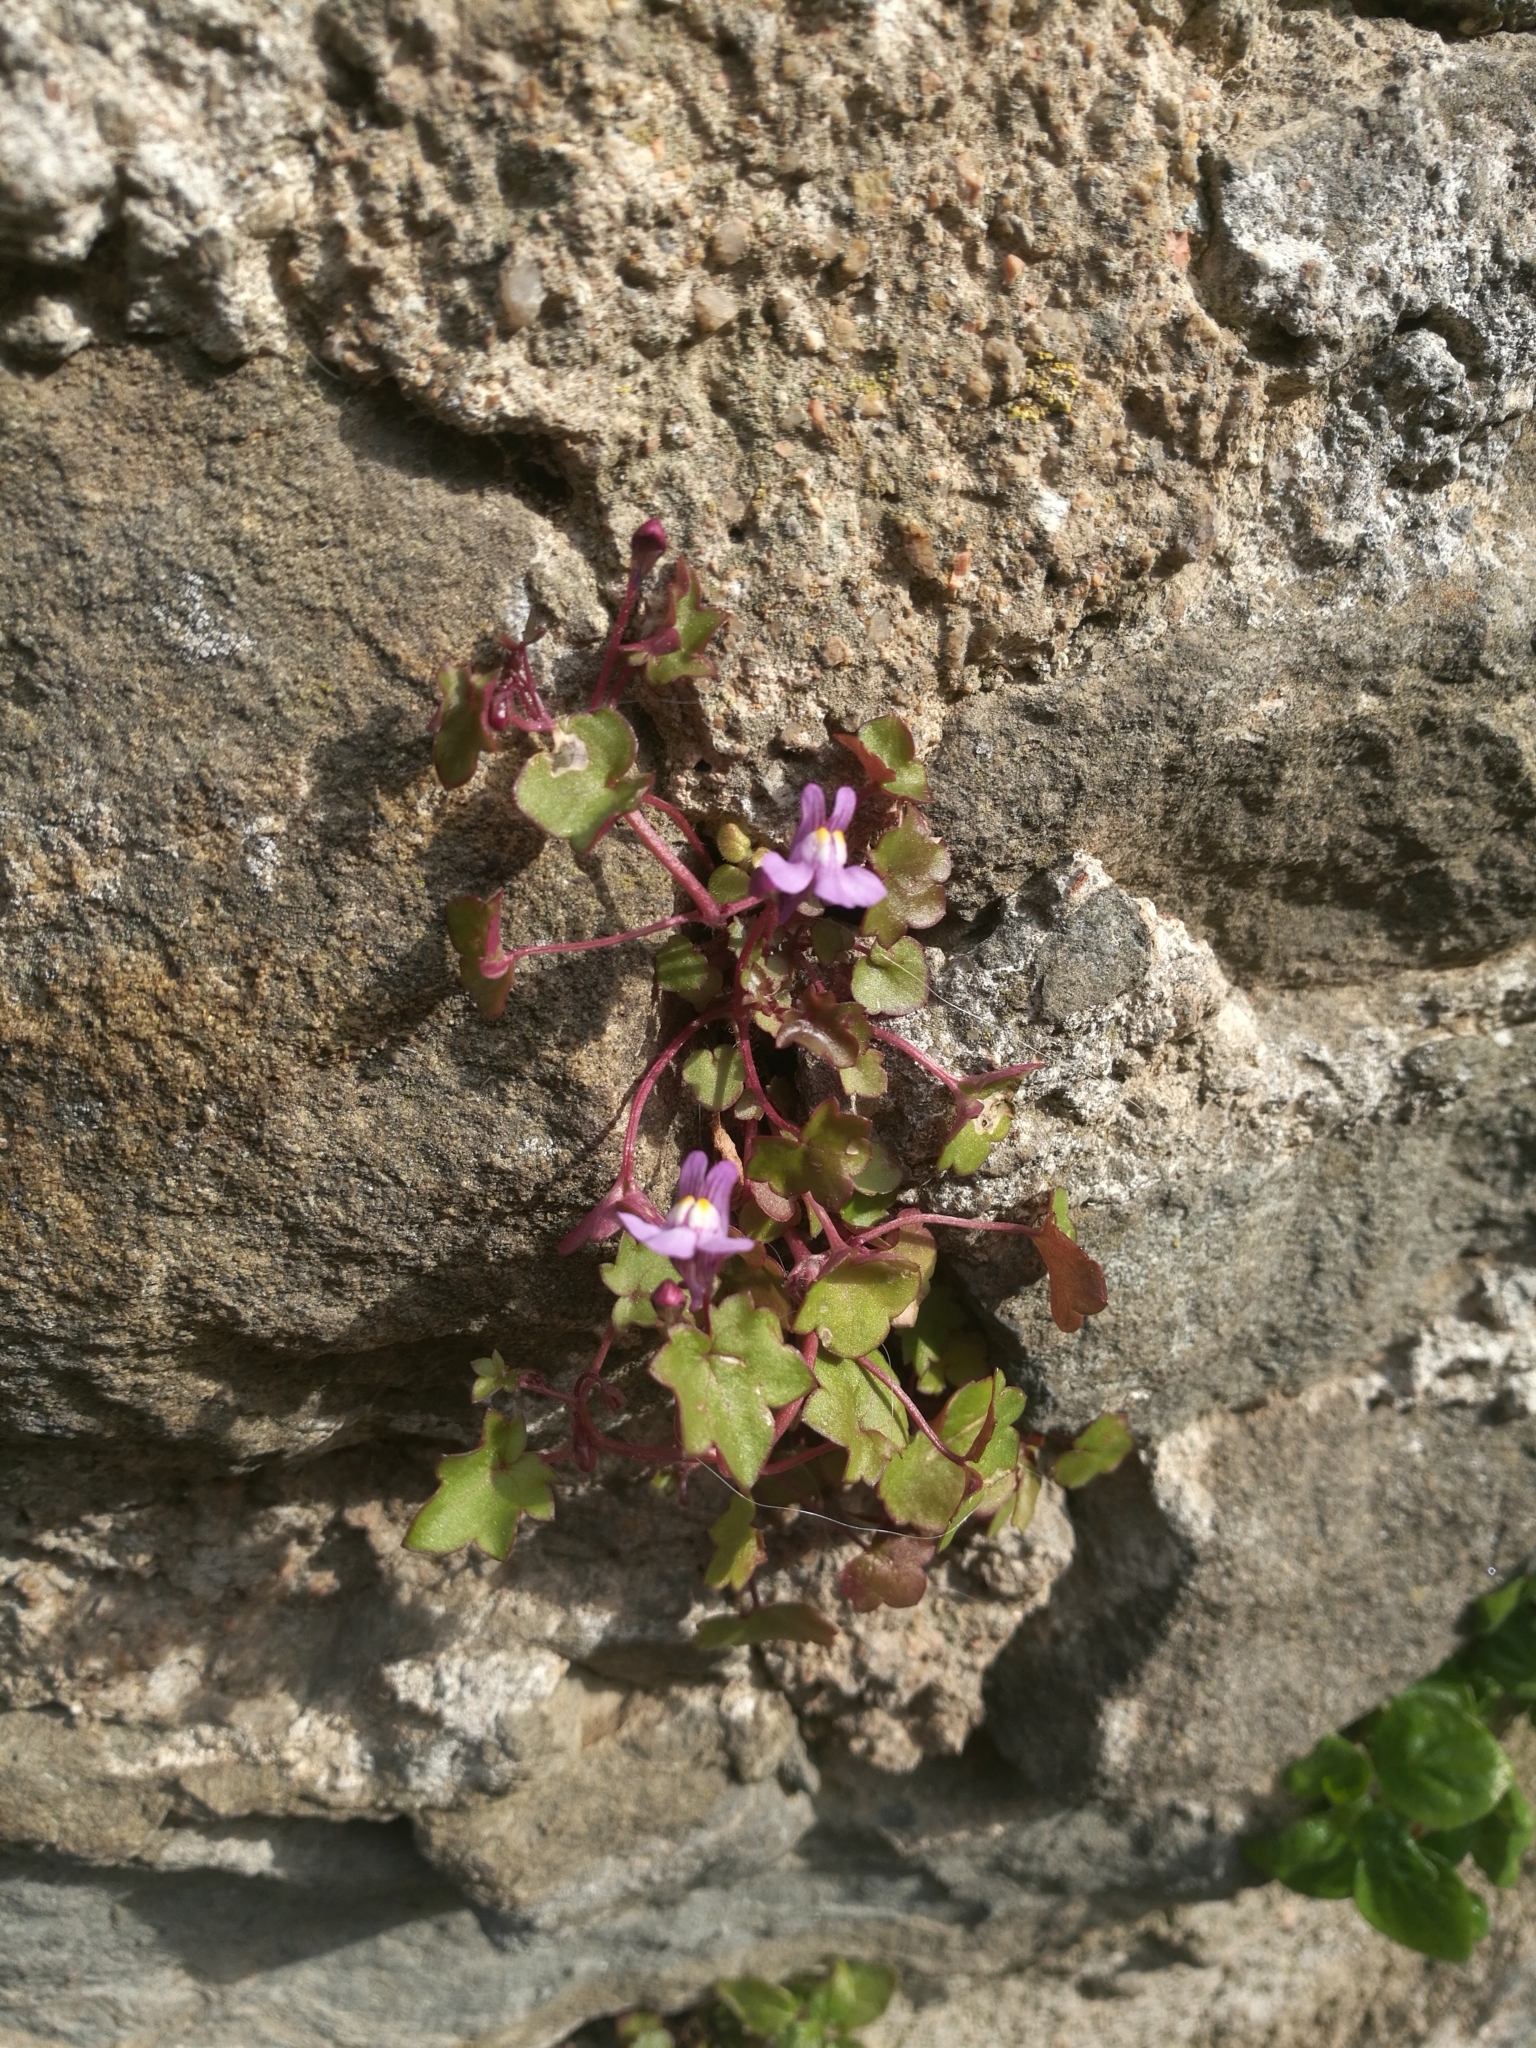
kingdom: Plantae
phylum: Tracheophyta
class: Magnoliopsida
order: Lamiales
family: Plantaginaceae
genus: Cymbalaria
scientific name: Cymbalaria muralis
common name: Ivy-leaved toadflax
